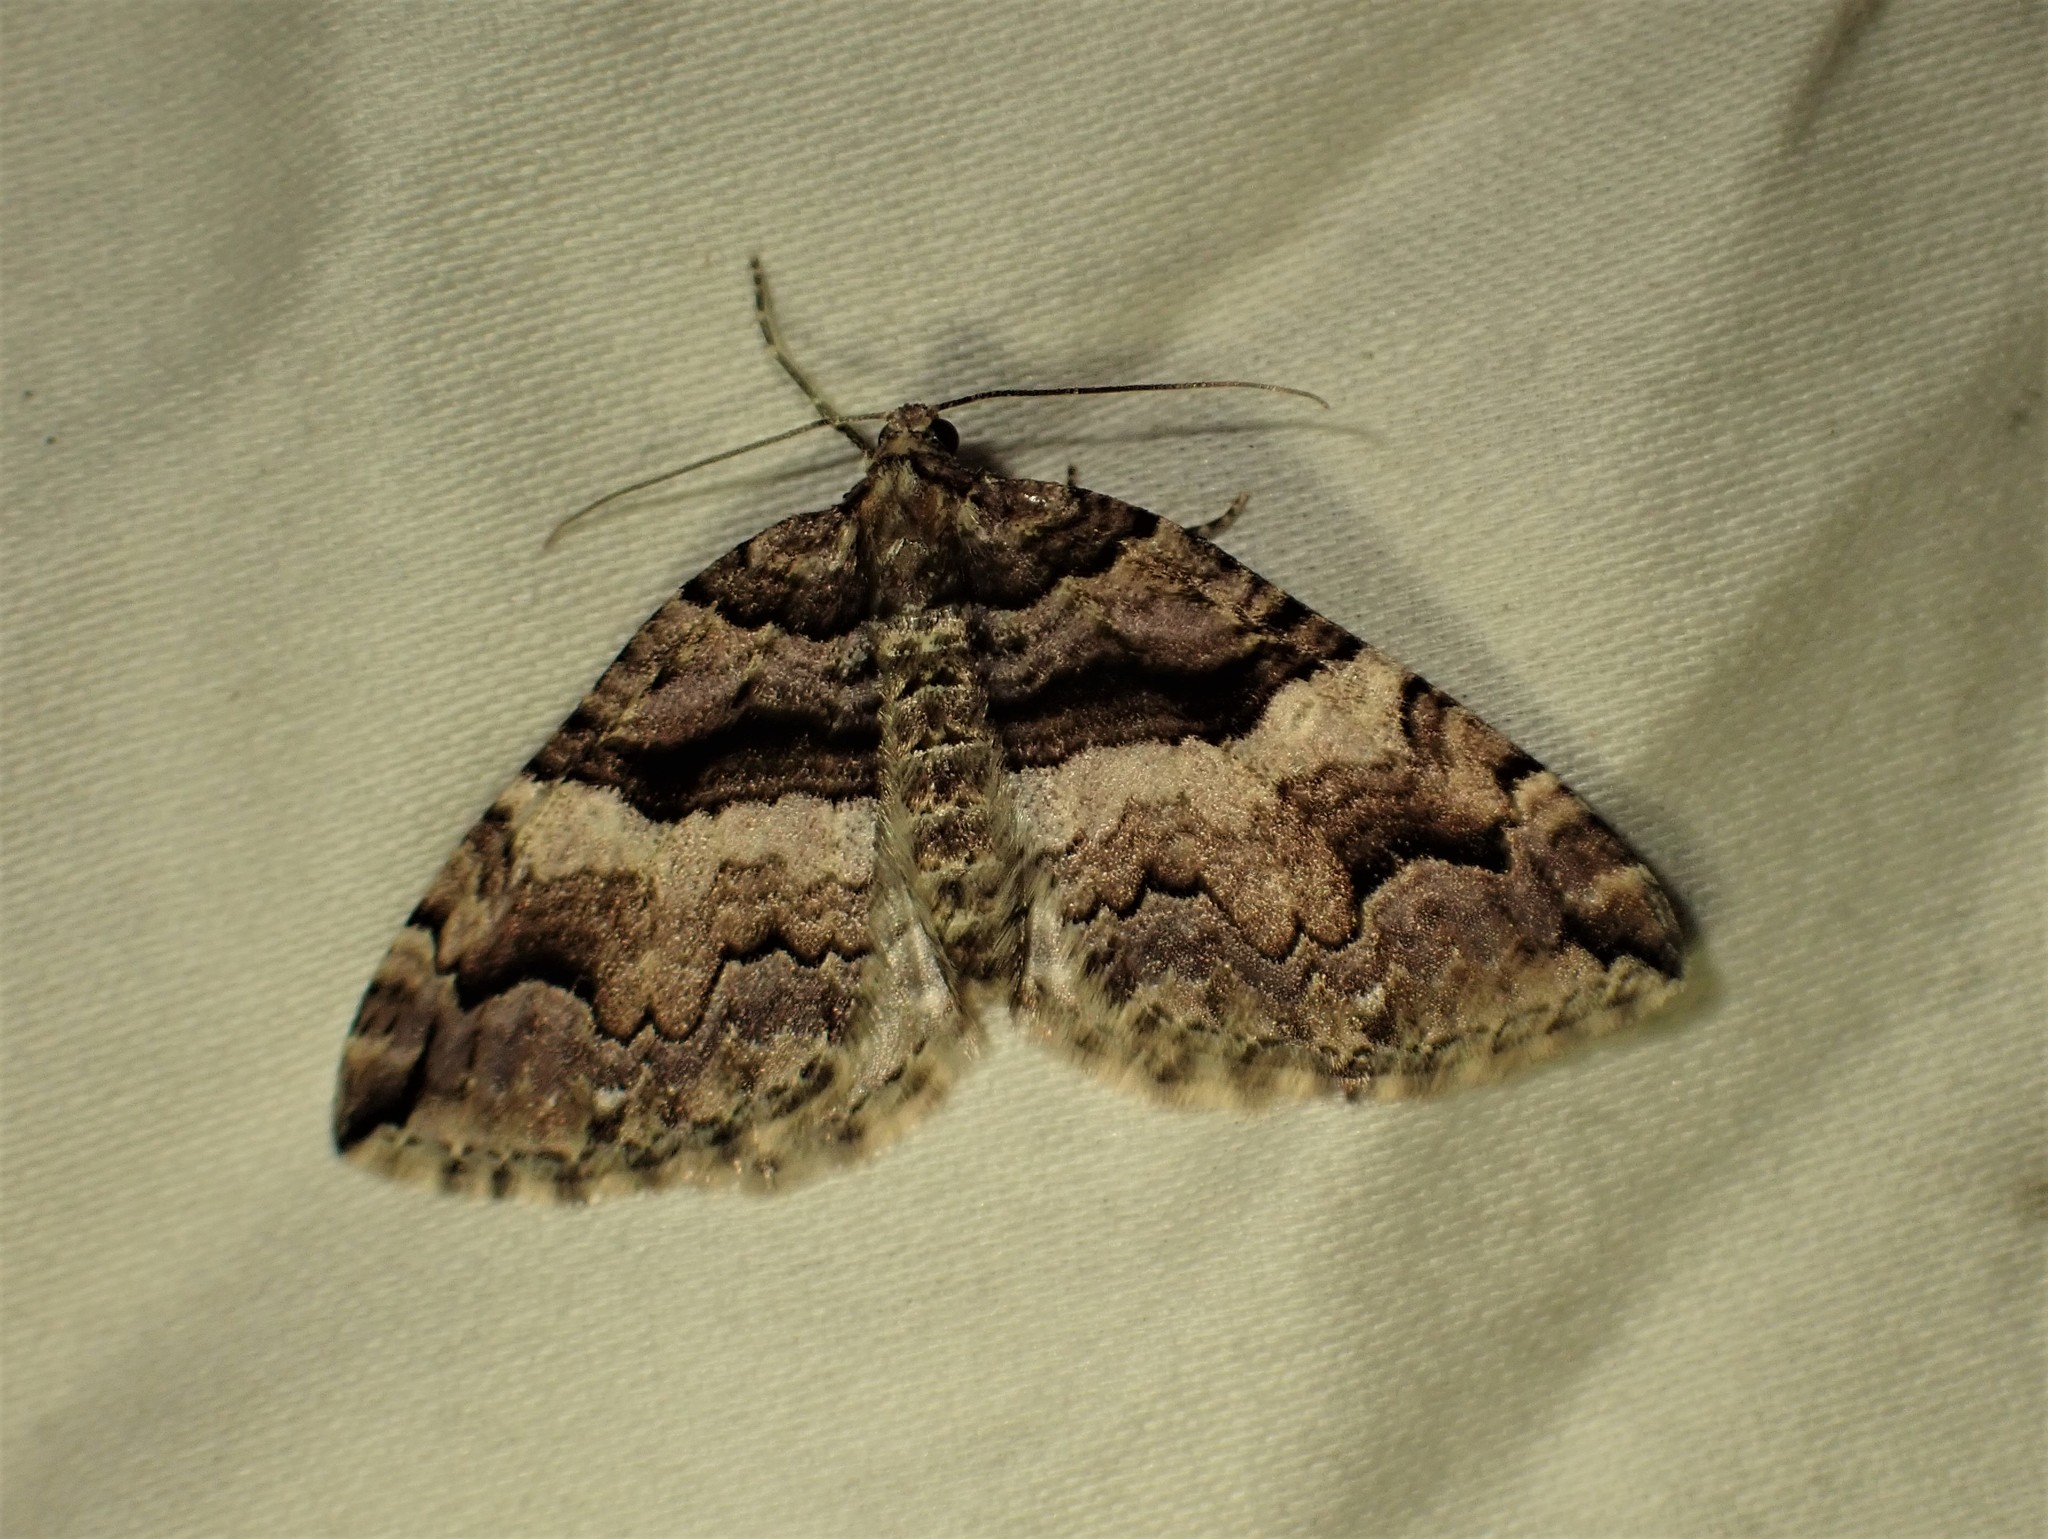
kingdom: Animalia
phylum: Arthropoda
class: Insecta
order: Lepidoptera
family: Geometridae
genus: Anticlea
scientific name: Anticlea vasiliata
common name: Variable carpet
